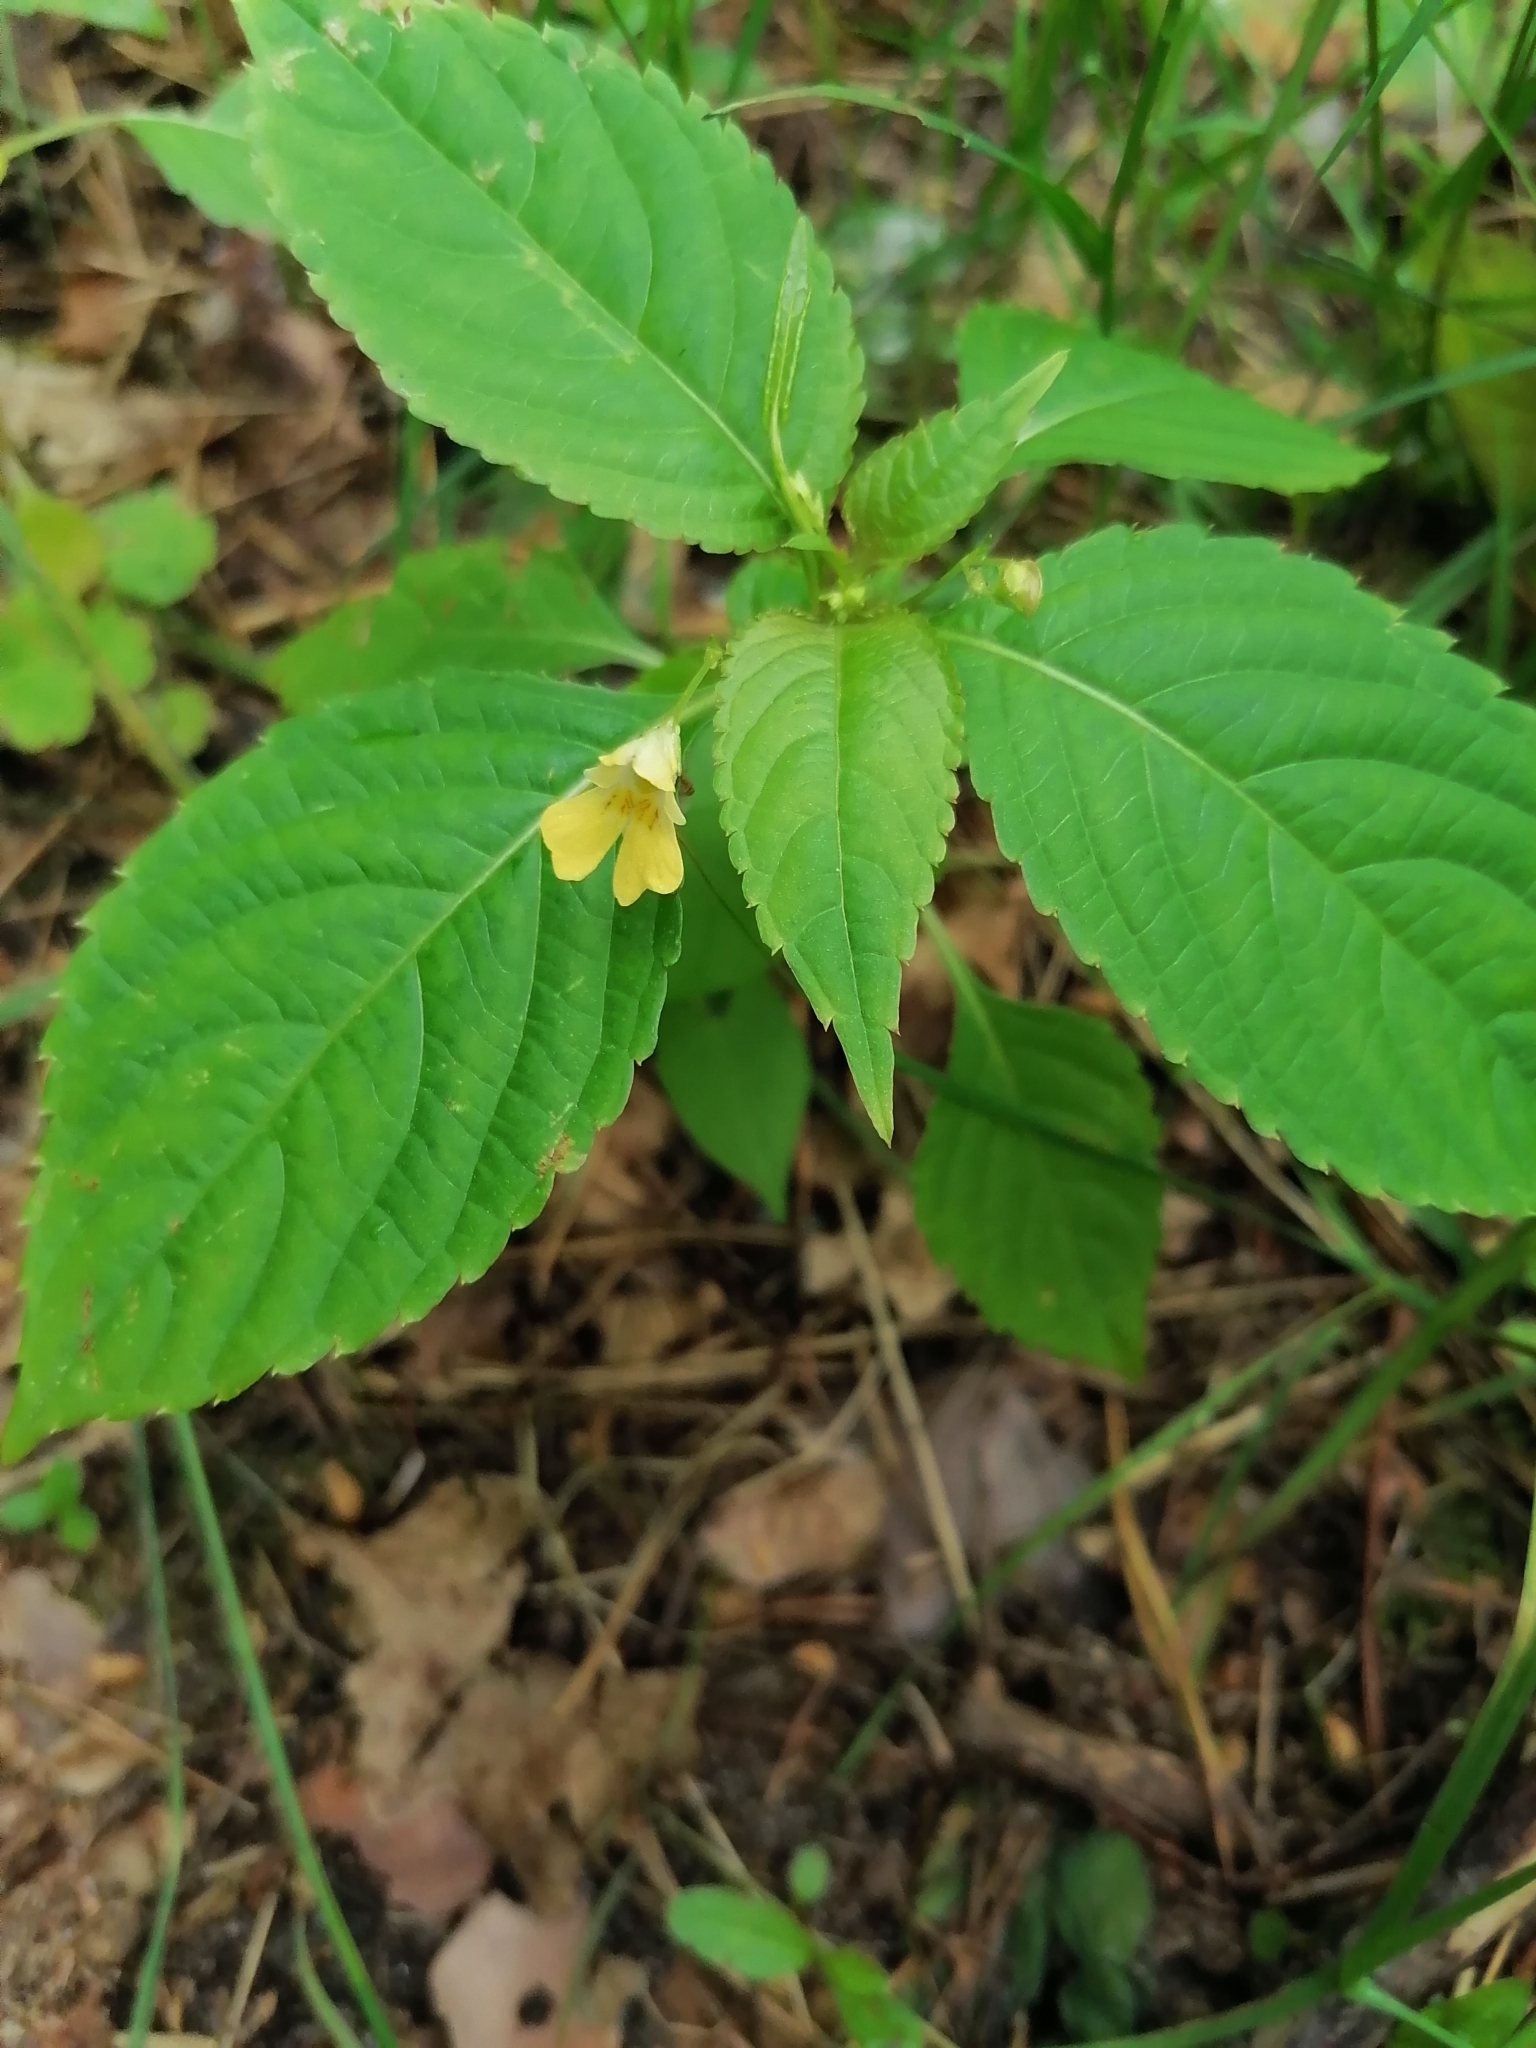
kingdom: Plantae
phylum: Tracheophyta
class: Magnoliopsida
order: Ericales
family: Balsaminaceae
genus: Impatiens
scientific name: Impatiens parviflora
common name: Small balsam
